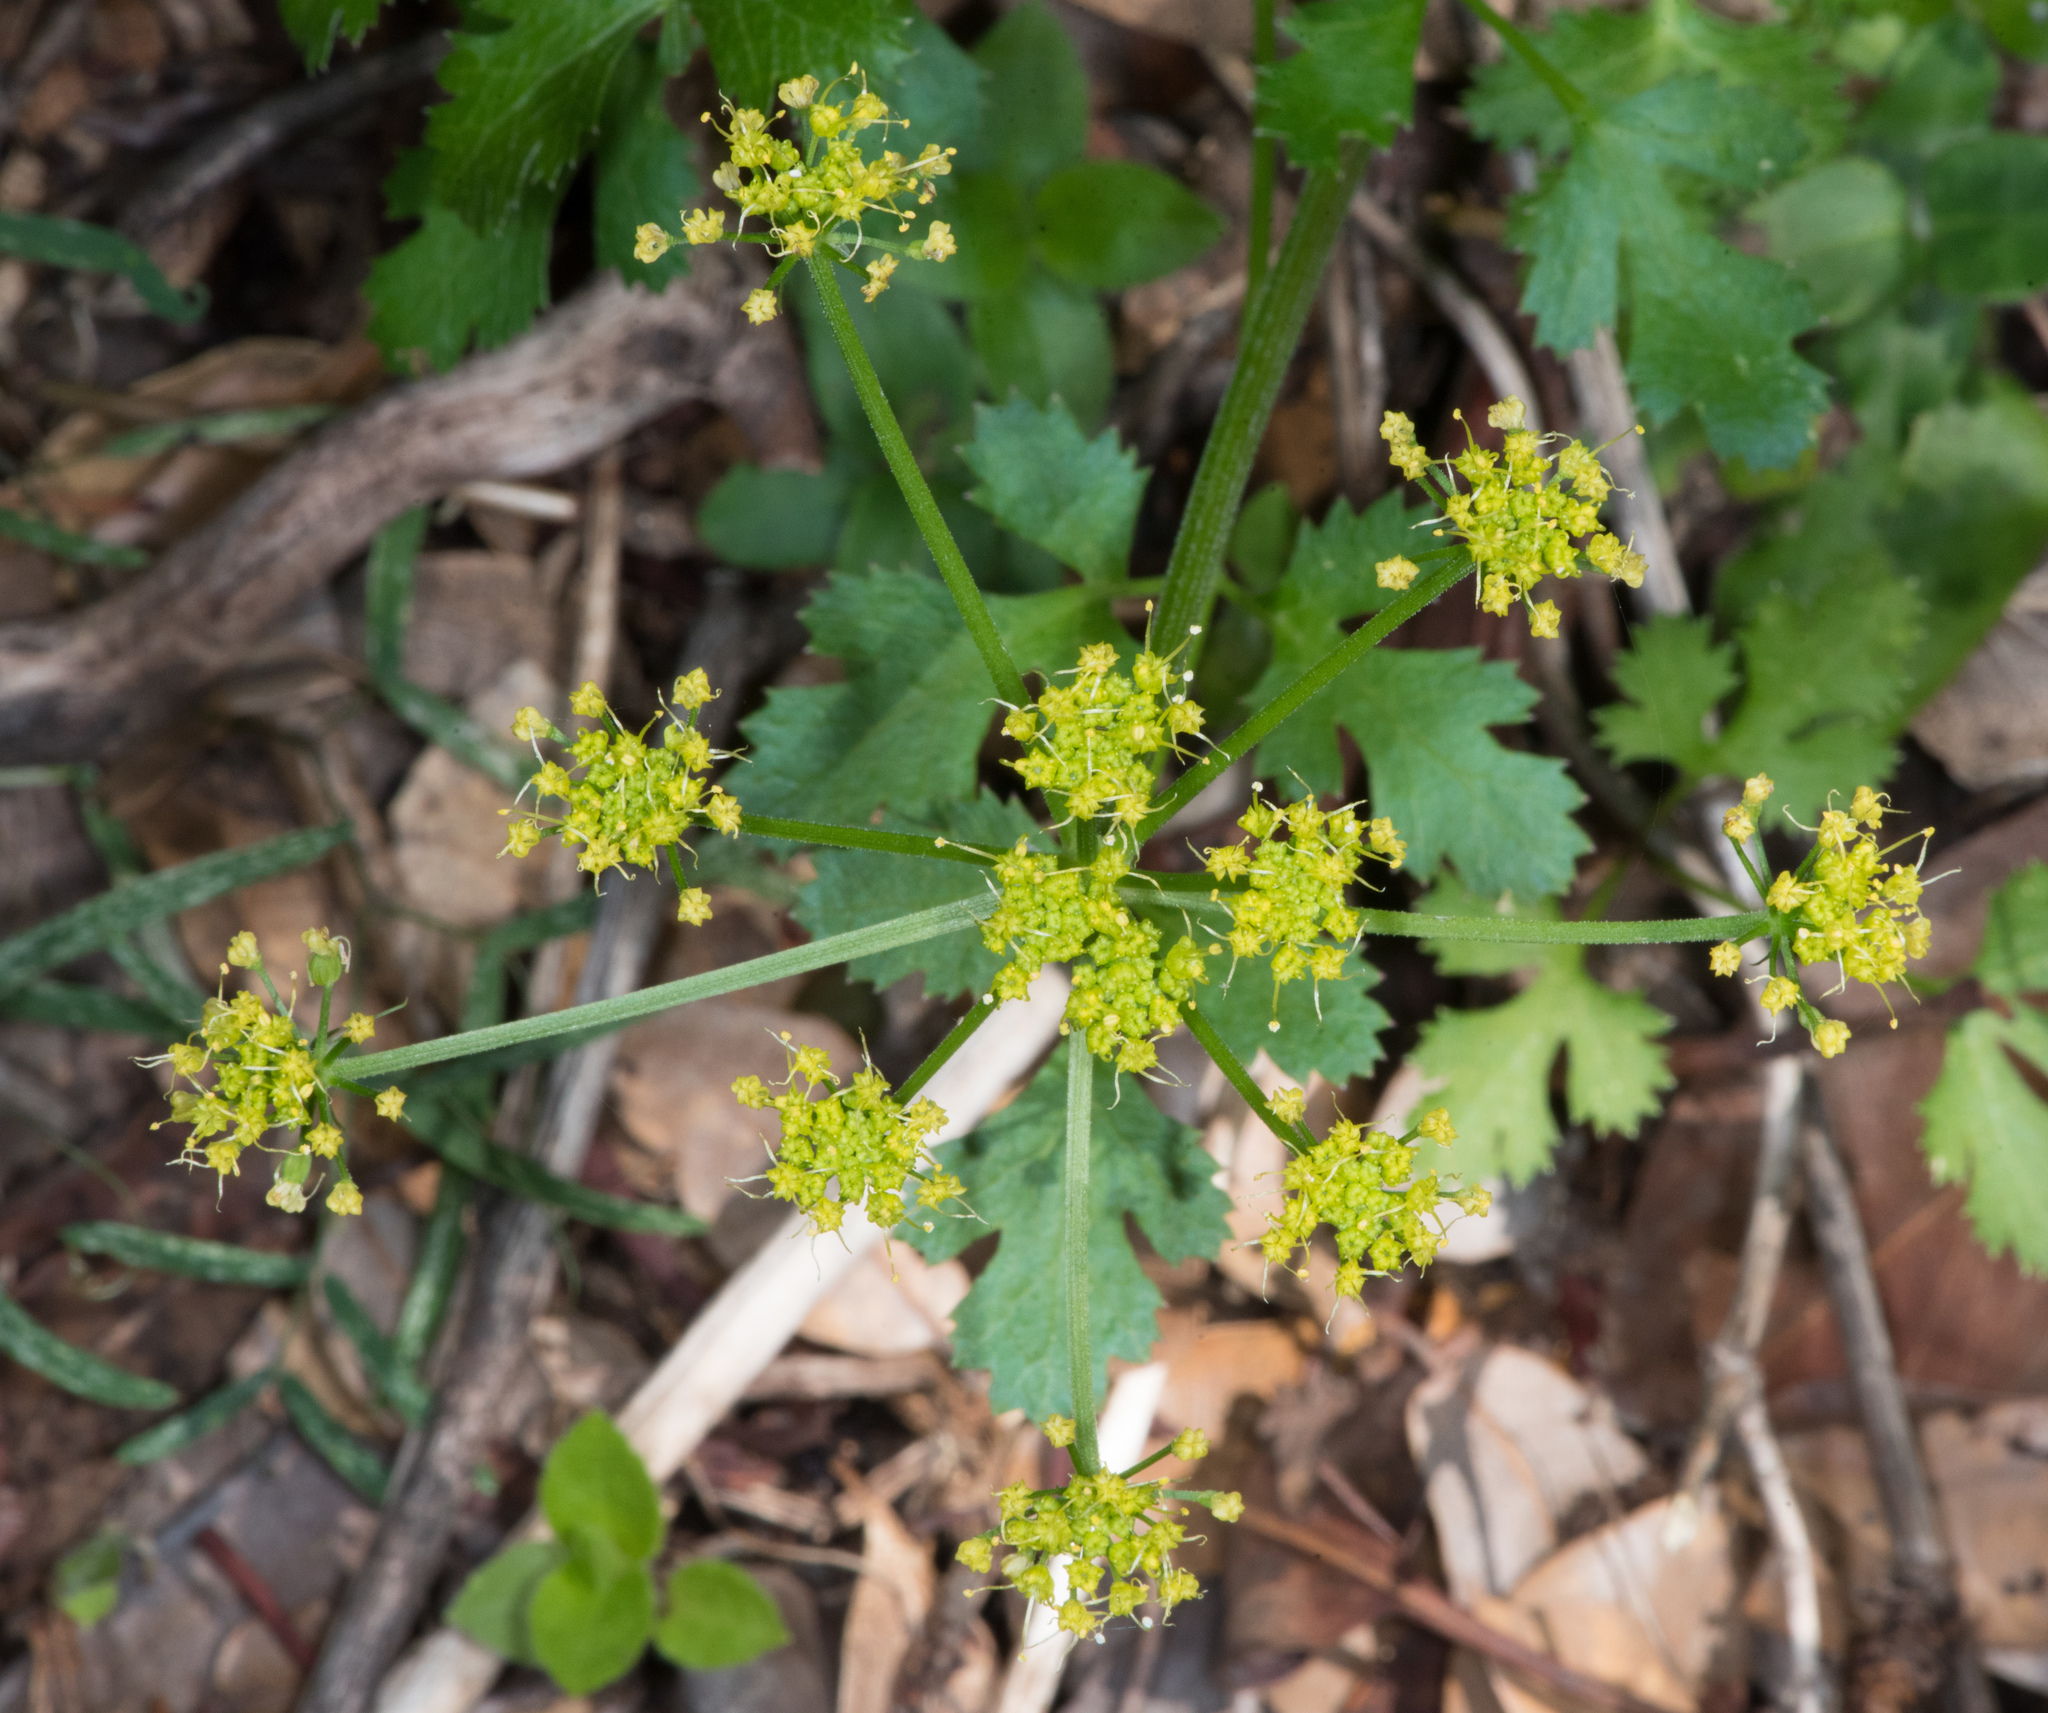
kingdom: Plantae
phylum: Tracheophyta
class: Magnoliopsida
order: Apiales
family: Apiaceae
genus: Sanicula
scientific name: Sanicula crassicaulis
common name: Western snakeroot
